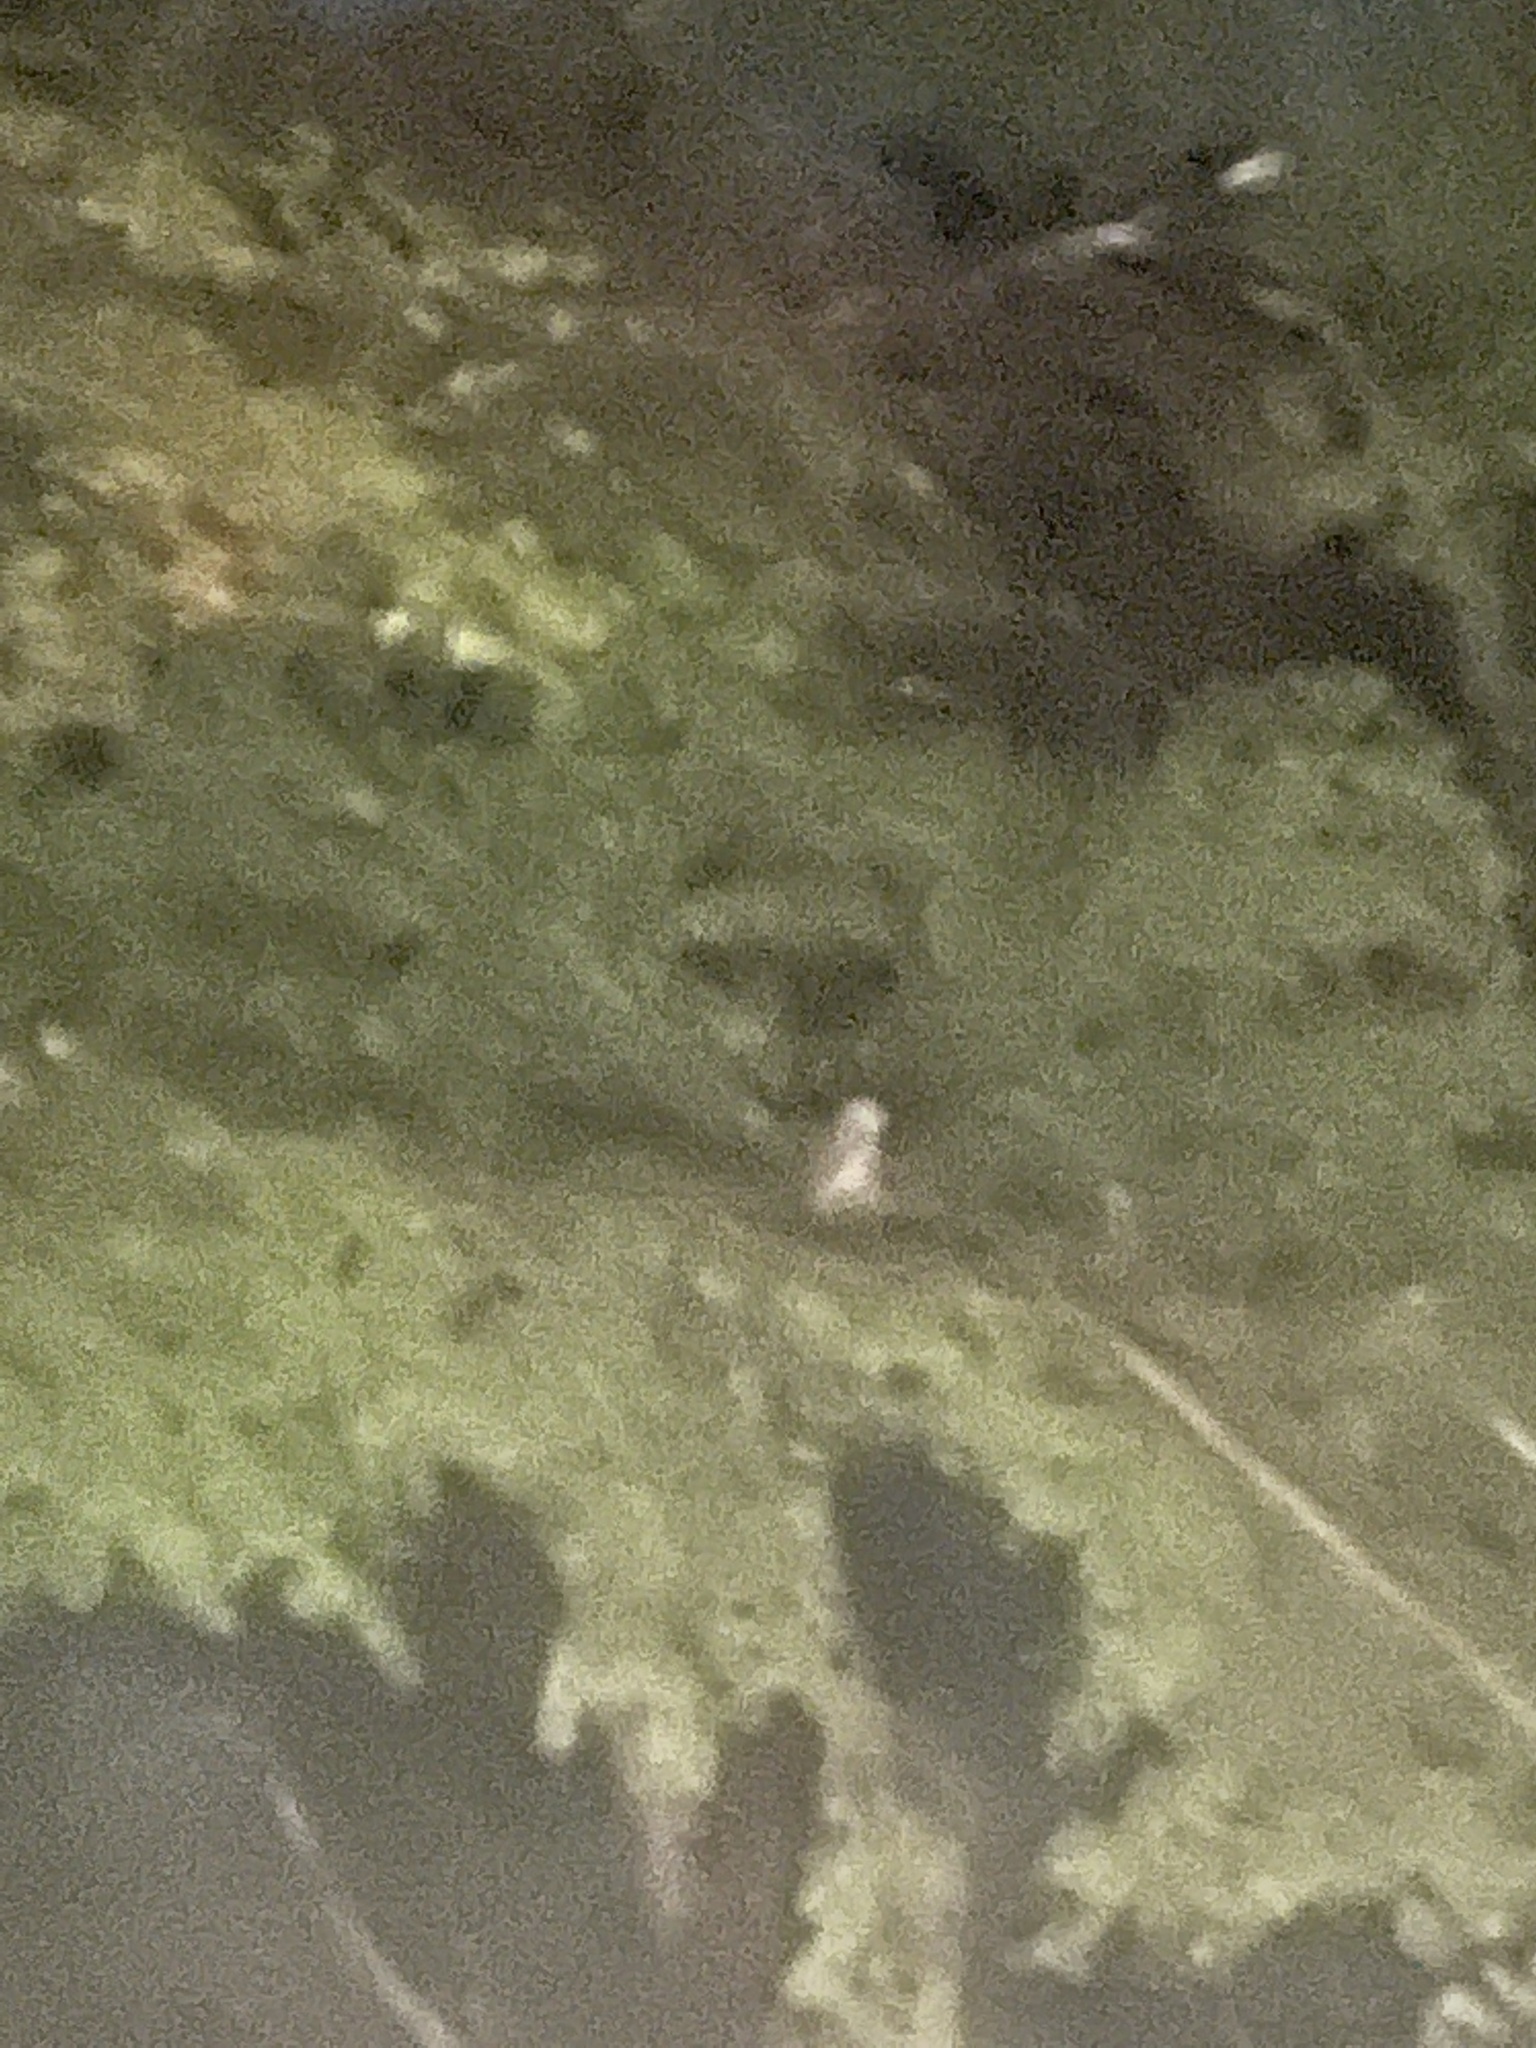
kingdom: Animalia
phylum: Chordata
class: Aves
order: Strigiformes
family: Strigidae
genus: Strix
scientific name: Strix varia
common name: Barred owl
